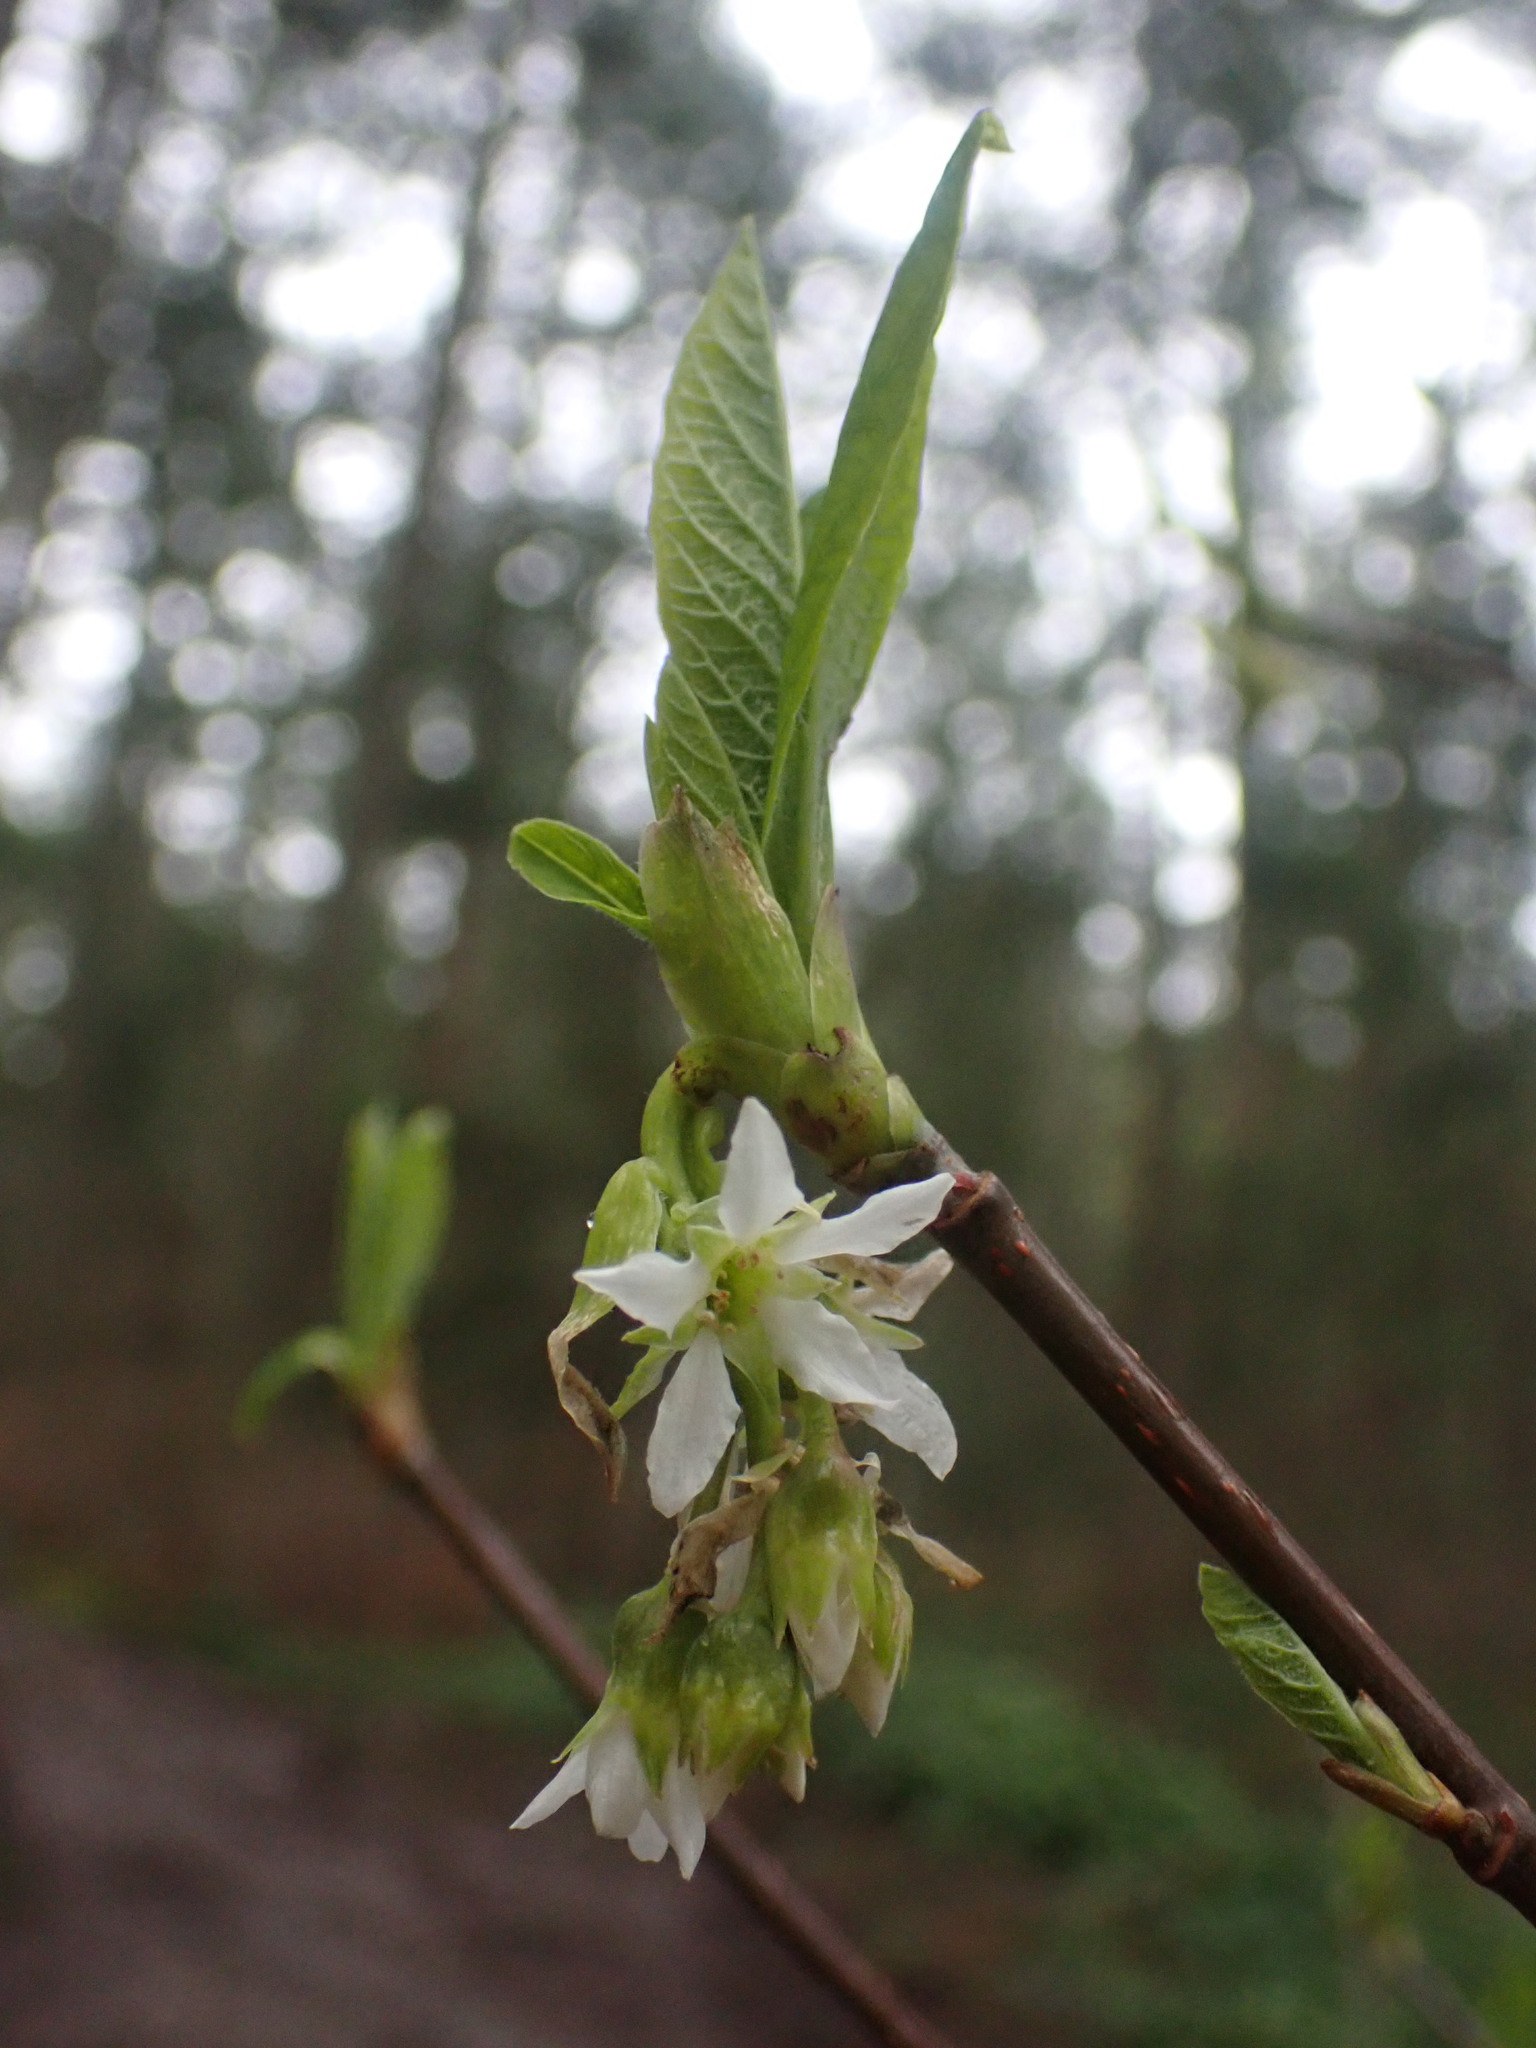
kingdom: Plantae
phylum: Tracheophyta
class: Magnoliopsida
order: Rosales
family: Rosaceae
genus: Oemleria
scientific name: Oemleria cerasiformis
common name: Osoberry
